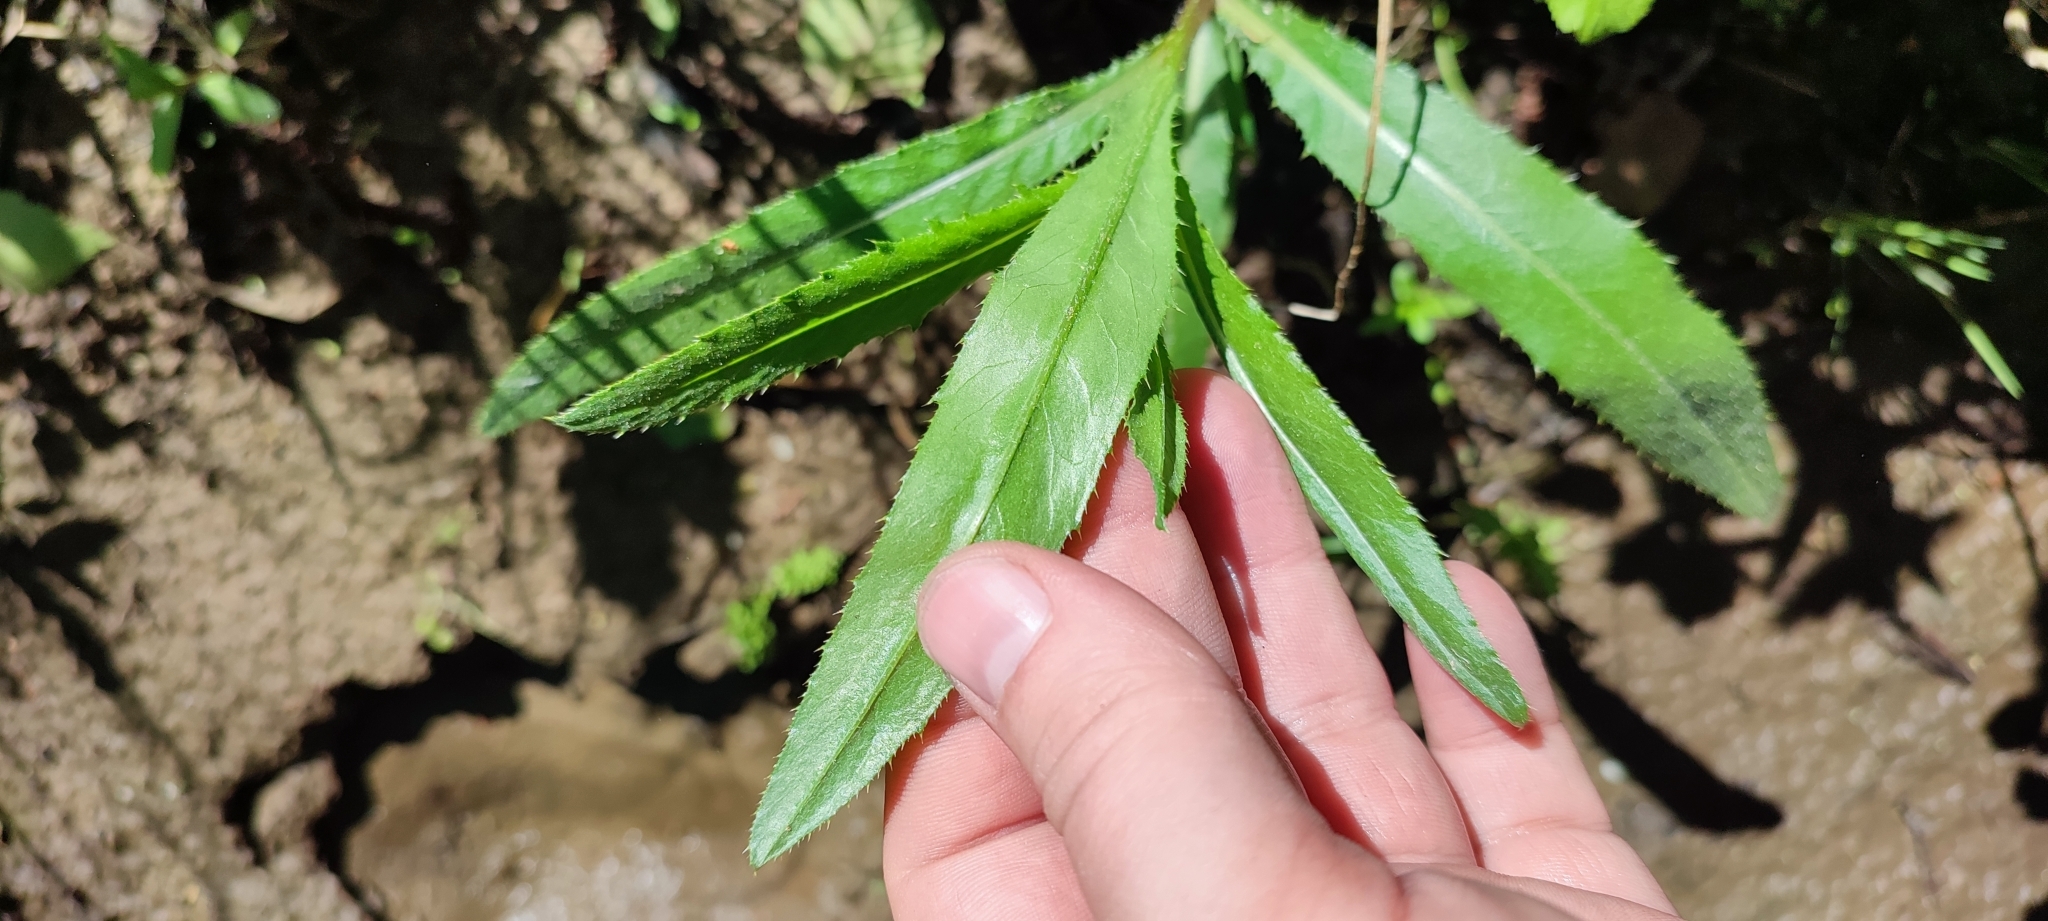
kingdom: Plantae
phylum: Tracheophyta
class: Magnoliopsida
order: Asterales
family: Asteraceae
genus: Cirsium
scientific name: Cirsium arvense
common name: Creeping thistle
